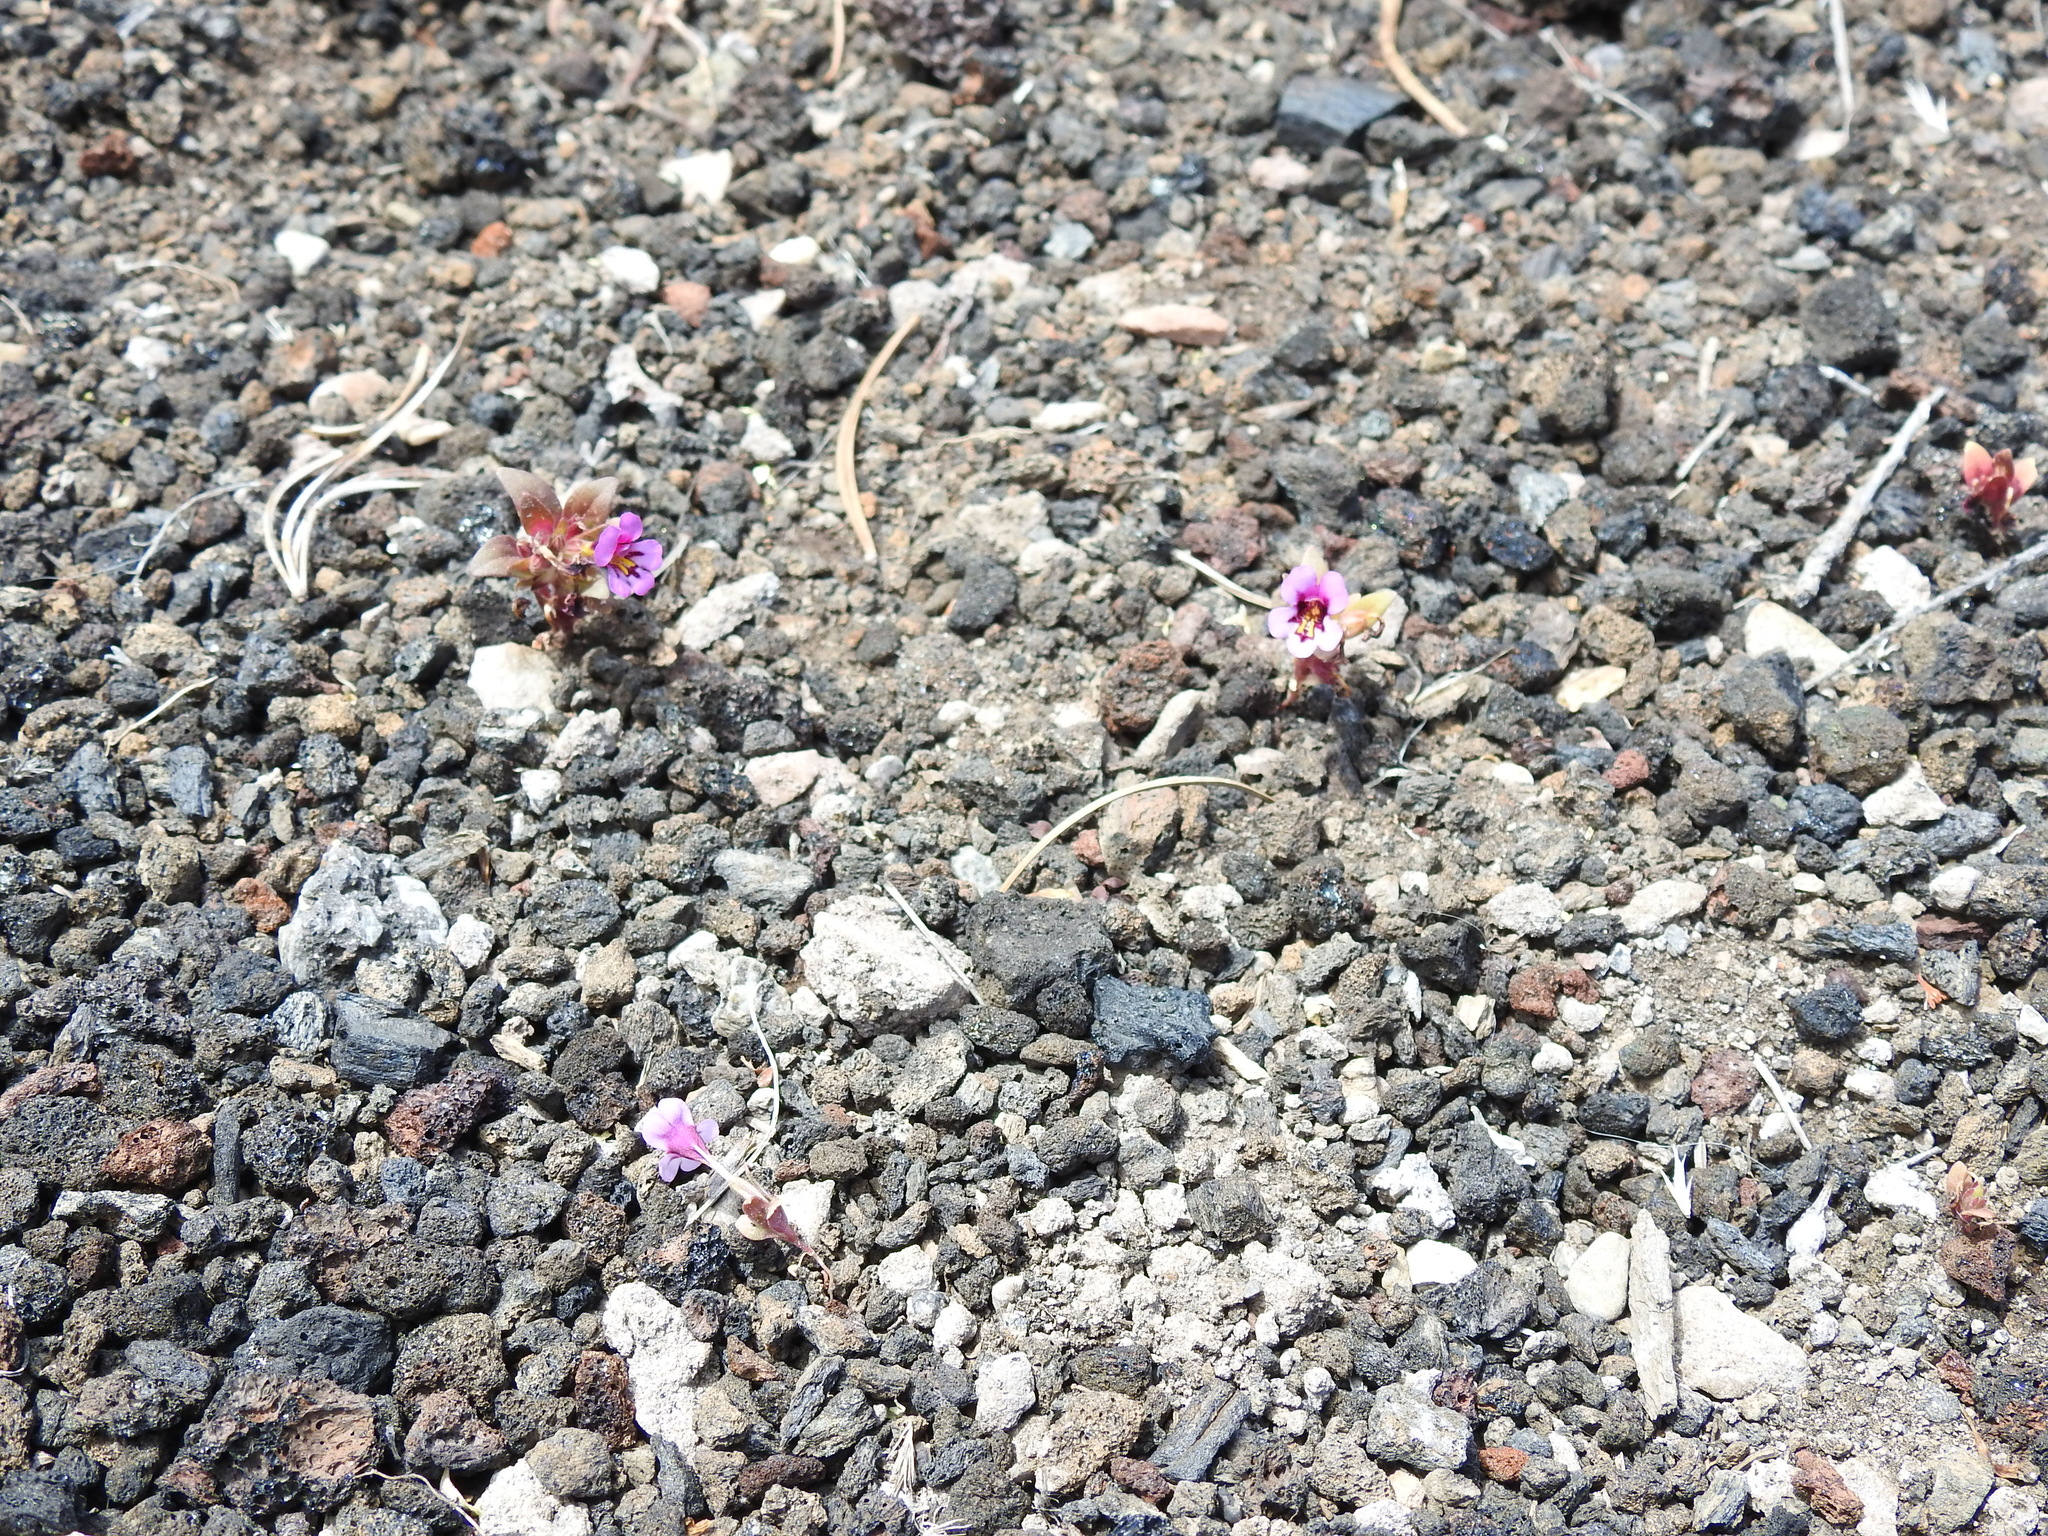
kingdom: Plantae
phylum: Tracheophyta
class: Magnoliopsida
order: Lamiales
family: Phrymaceae
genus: Diplacus
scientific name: Diplacus nanus
